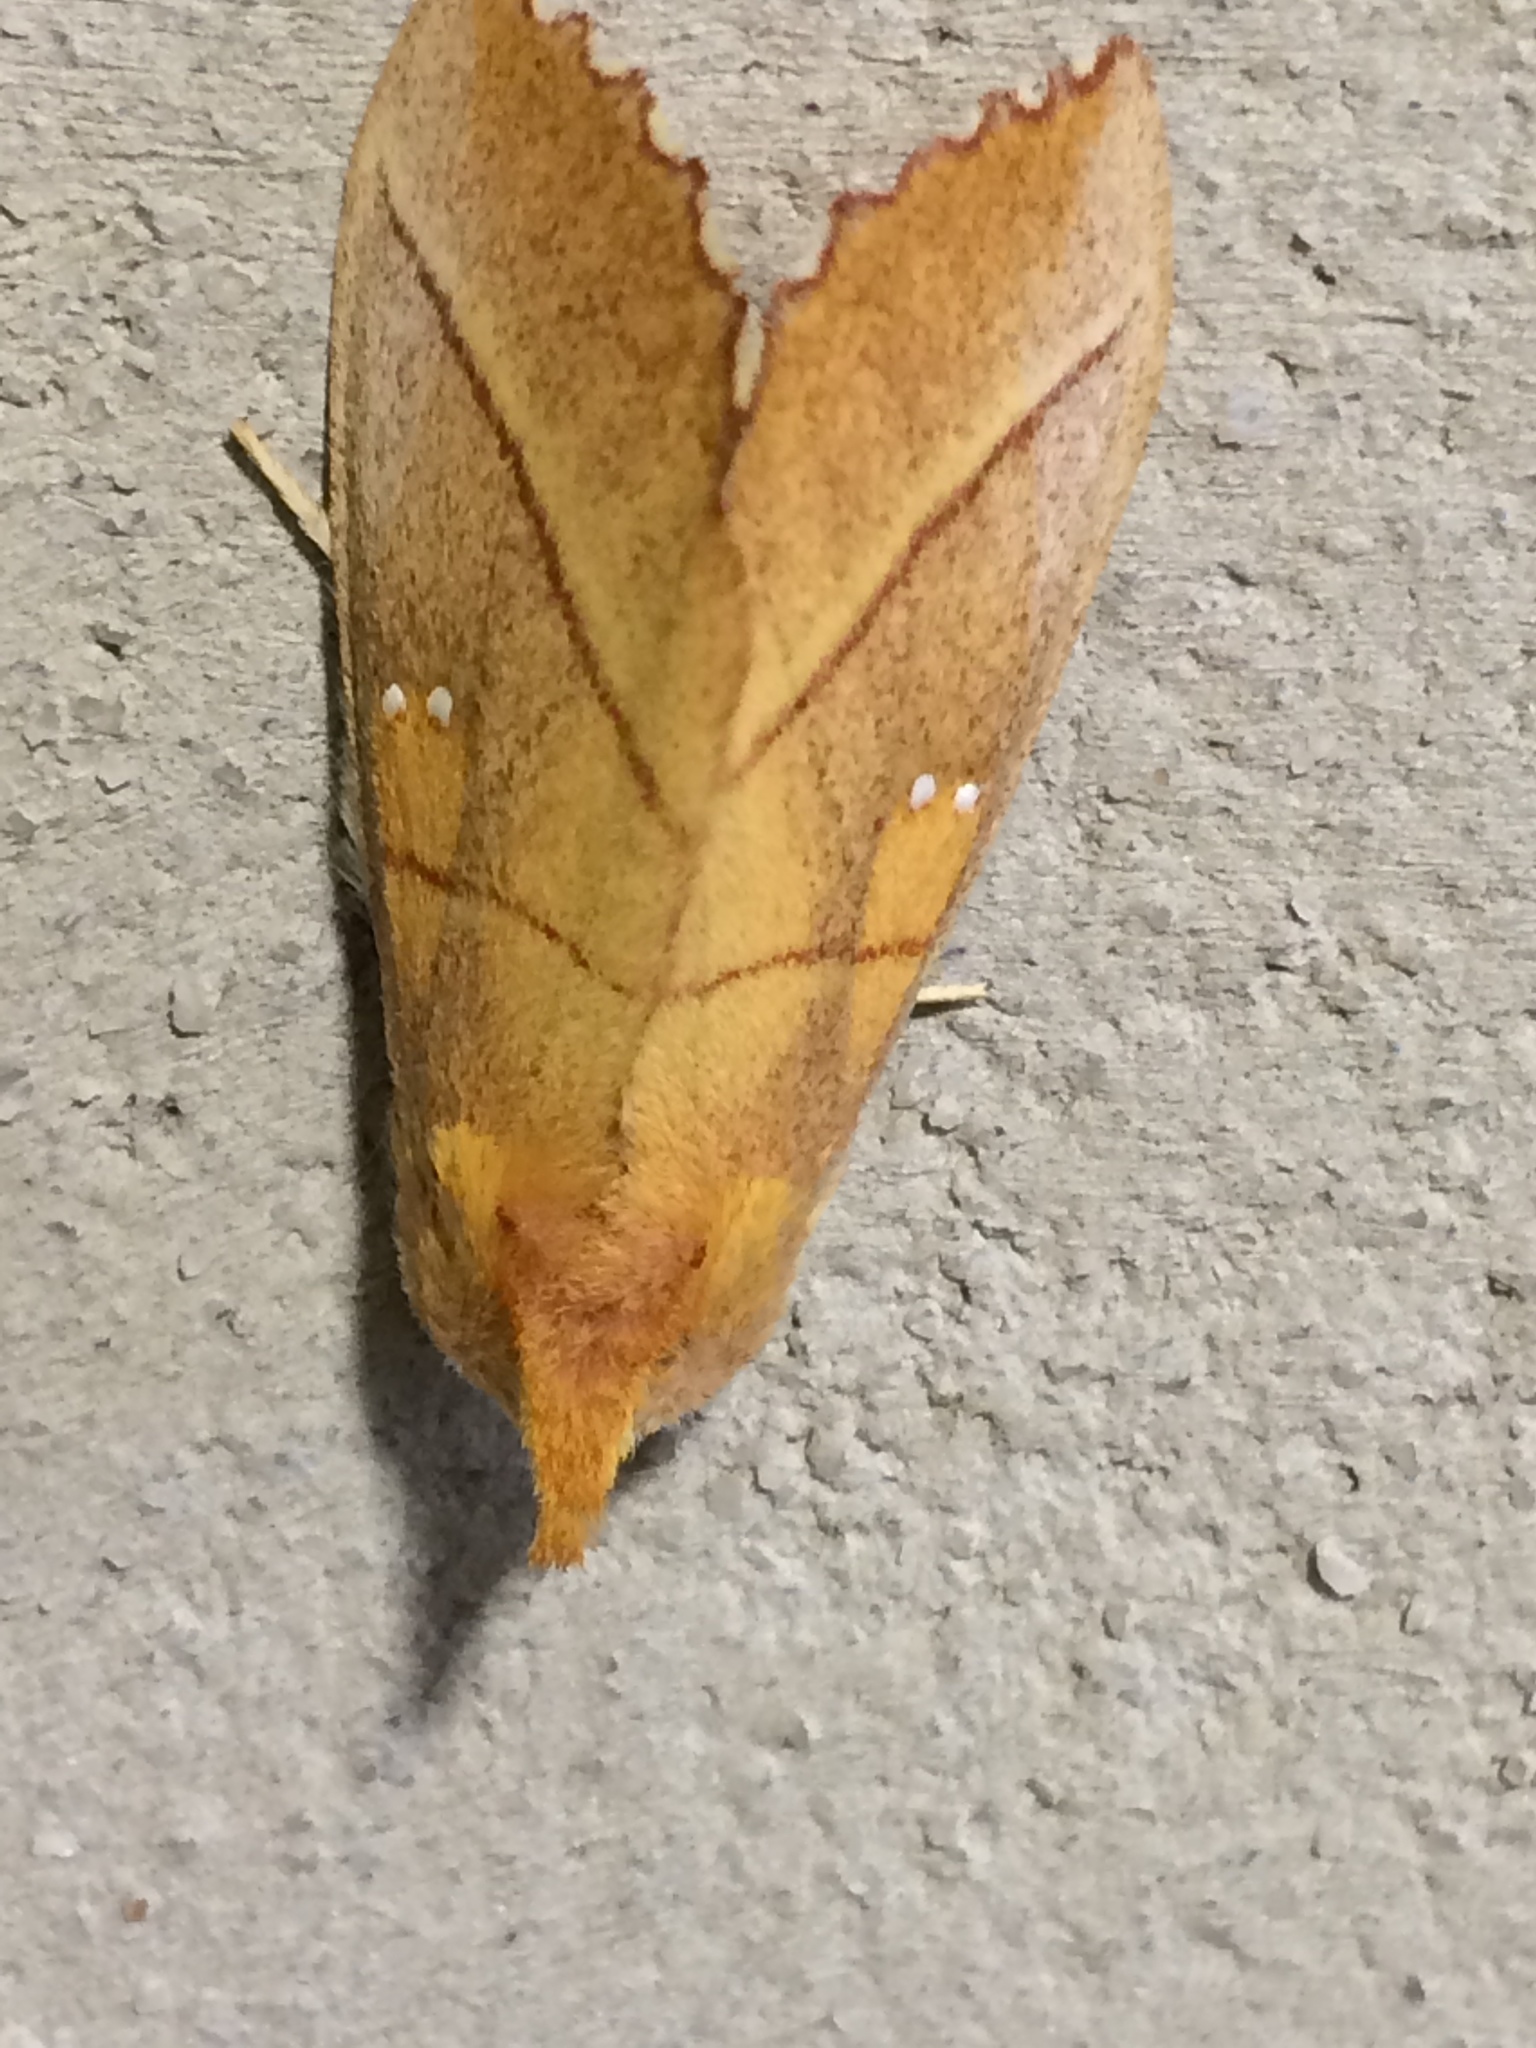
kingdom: Animalia
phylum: Arthropoda
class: Insecta
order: Lepidoptera
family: Notodontidae
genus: Nadata
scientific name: Nadata gibbosa
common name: White-dotted prominent
